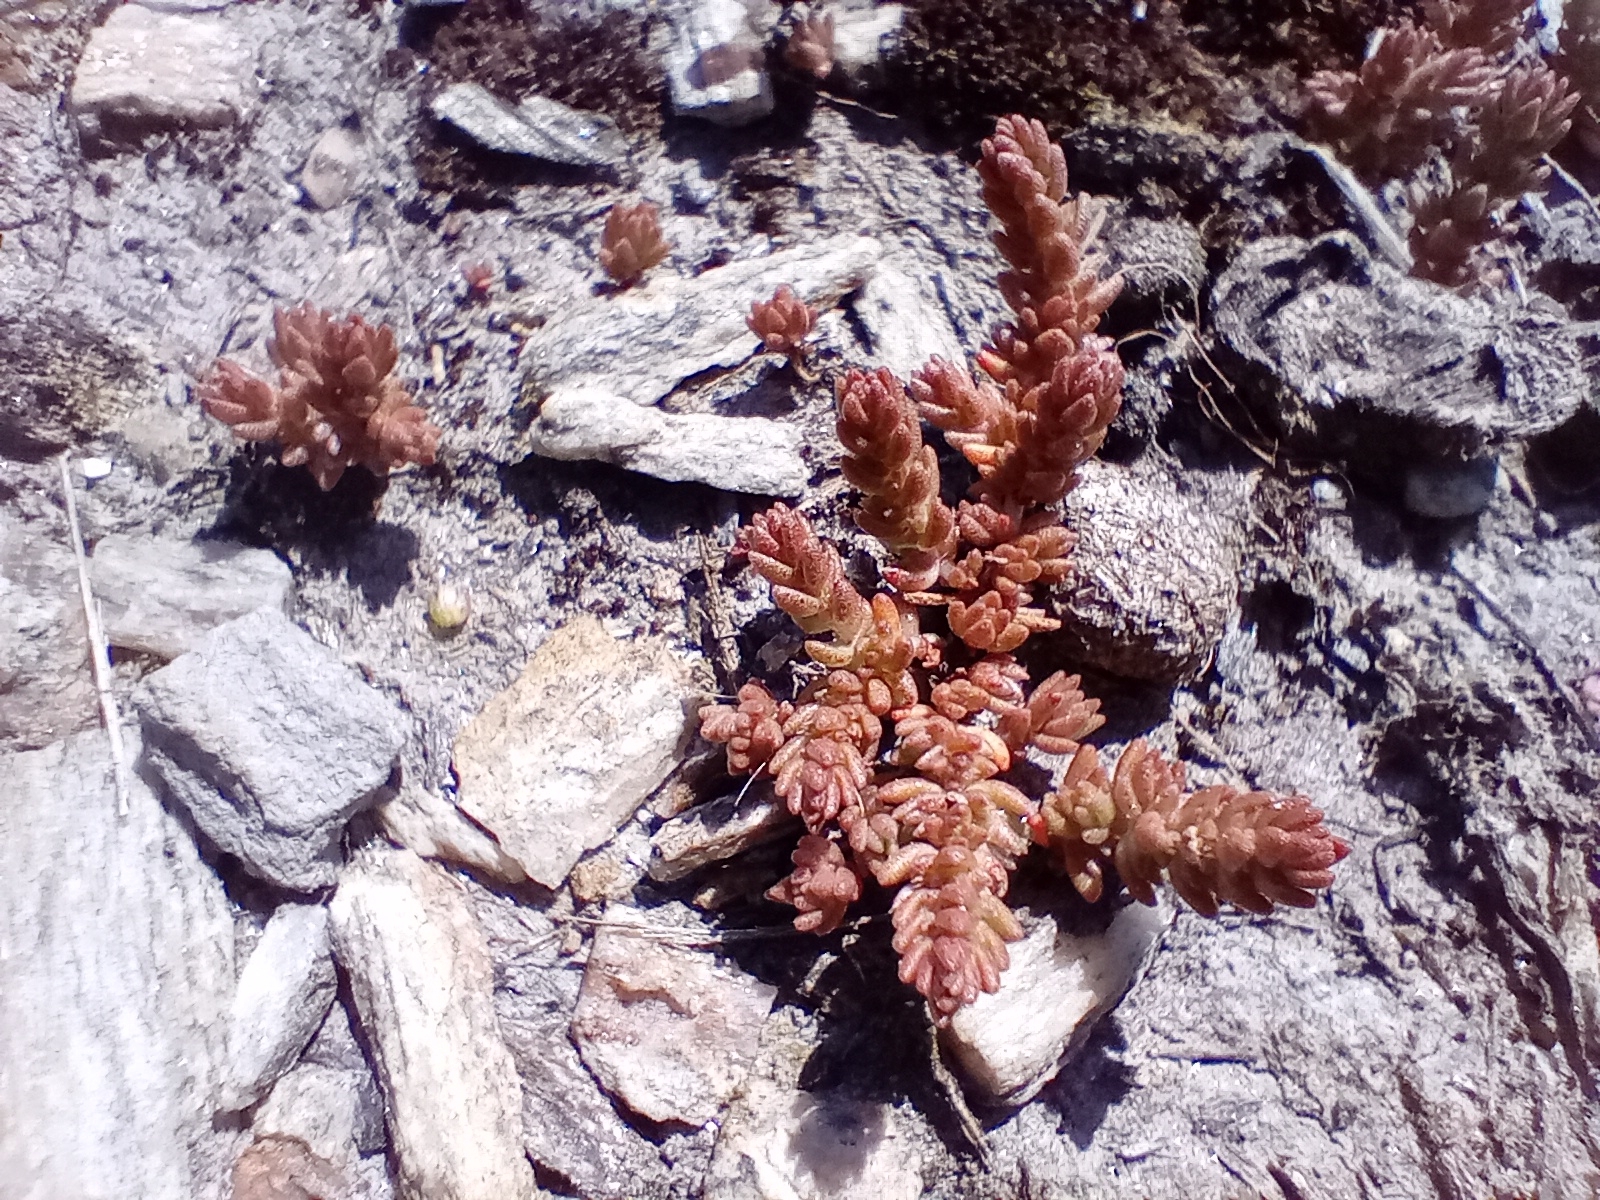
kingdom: Plantae
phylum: Tracheophyta
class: Magnoliopsida
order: Saxifragales
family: Crassulaceae
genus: Crassula
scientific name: Crassula colligata
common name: Pygmyweed
